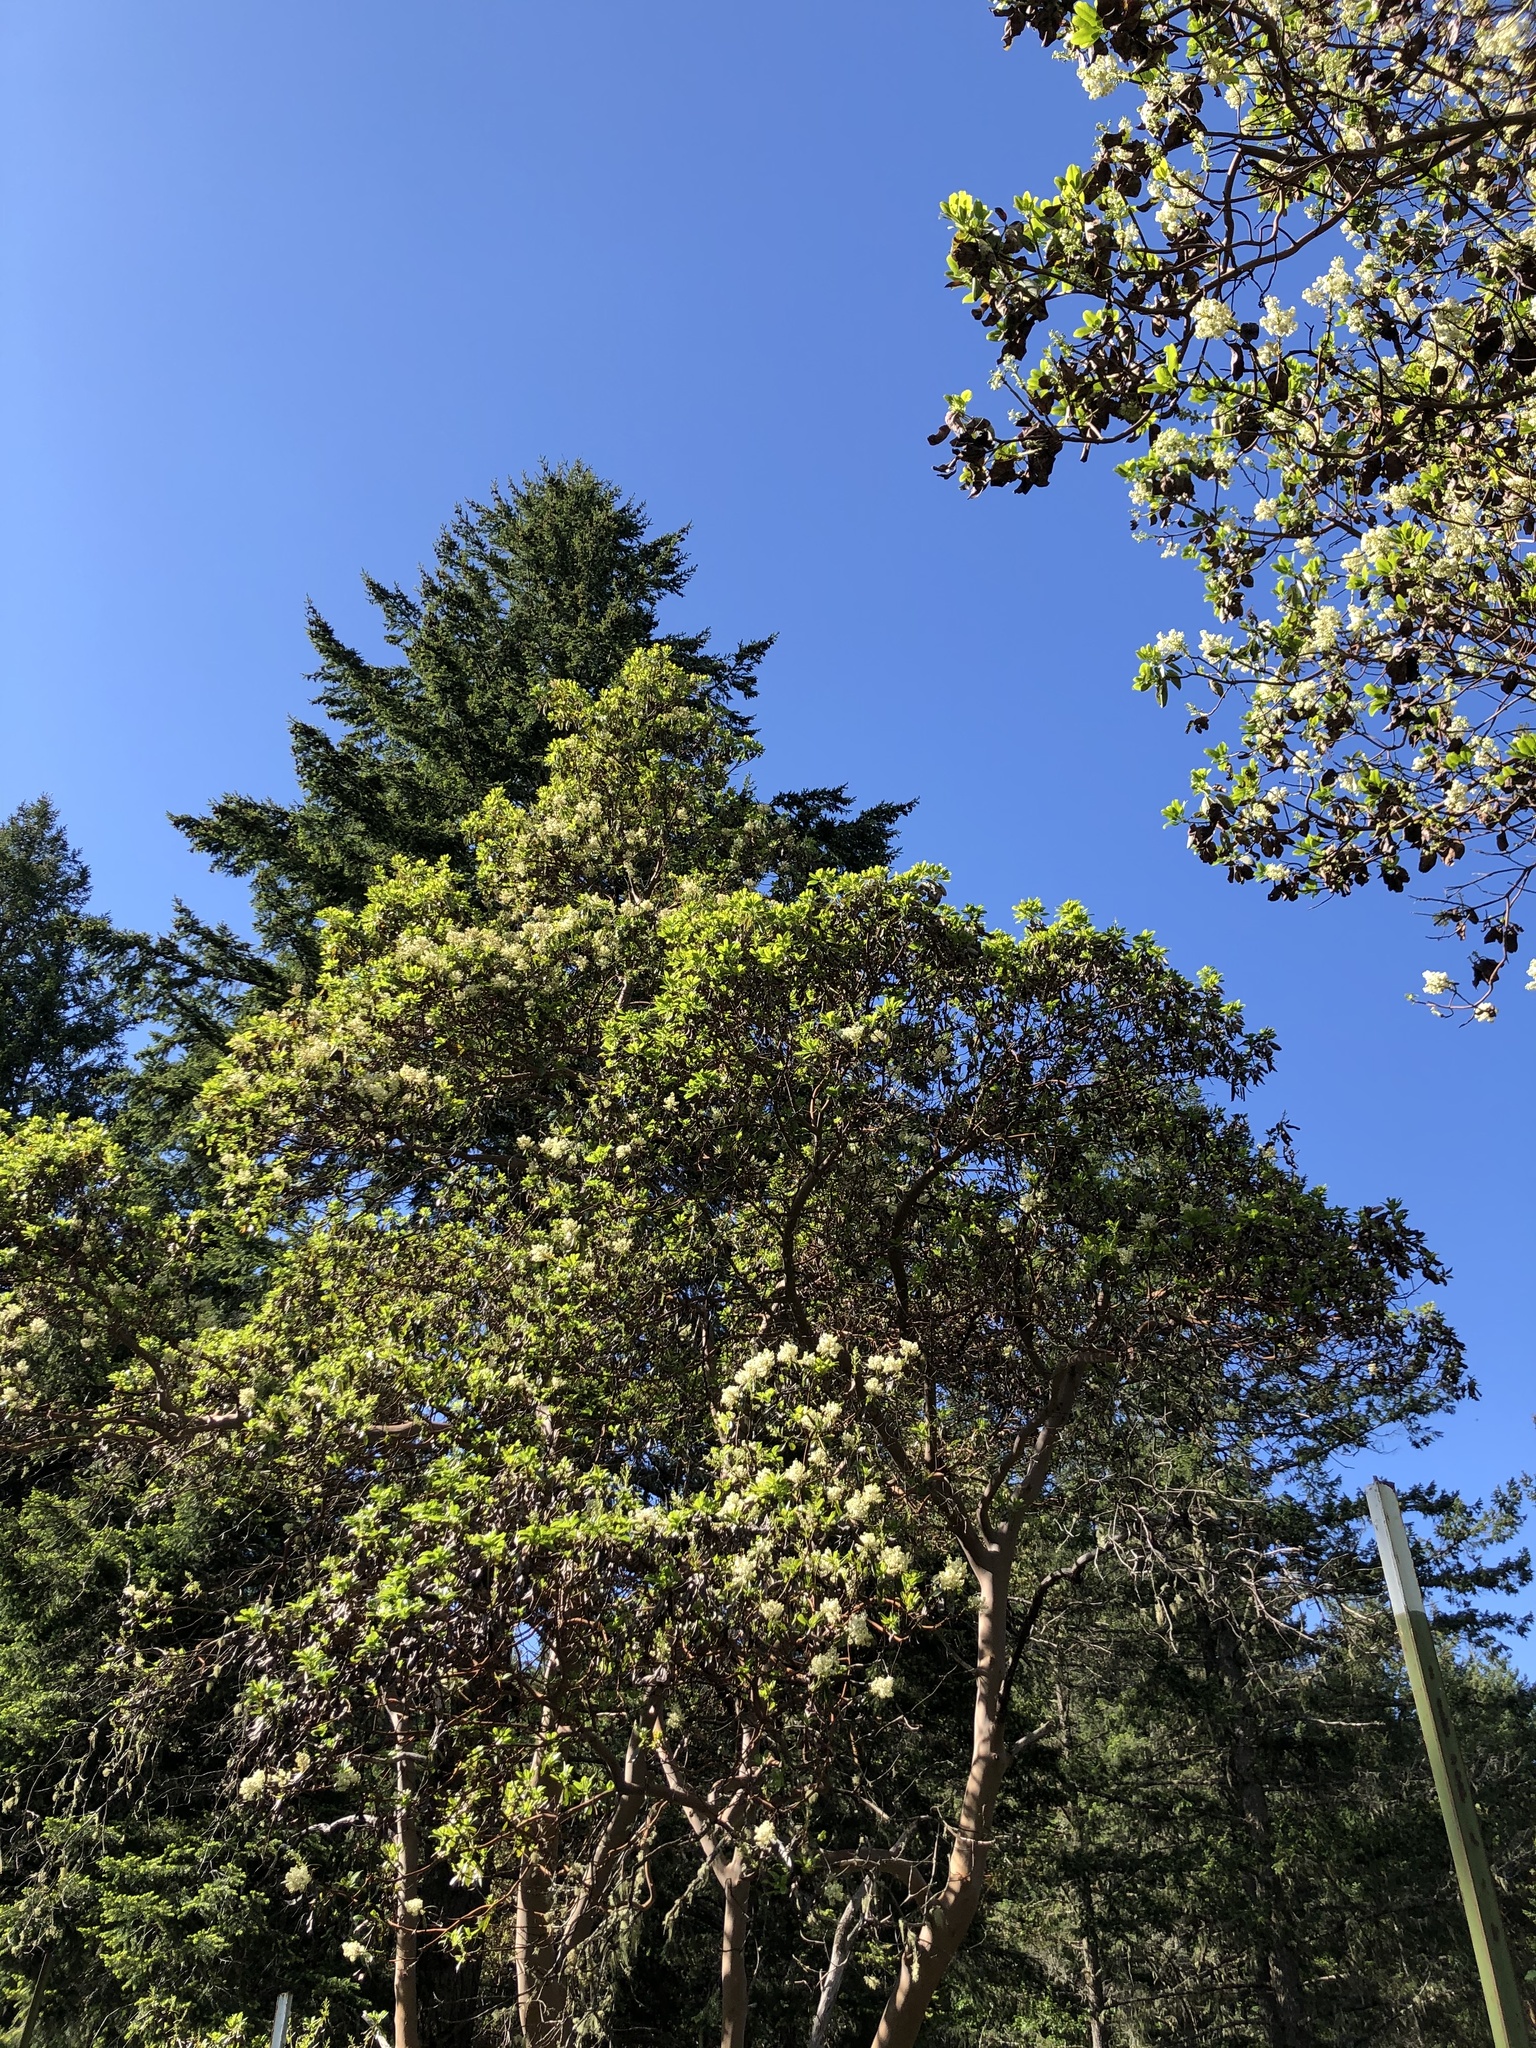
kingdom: Plantae
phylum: Tracheophyta
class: Magnoliopsida
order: Ericales
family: Ericaceae
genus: Arbutus
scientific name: Arbutus menziesii
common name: Pacific madrone
